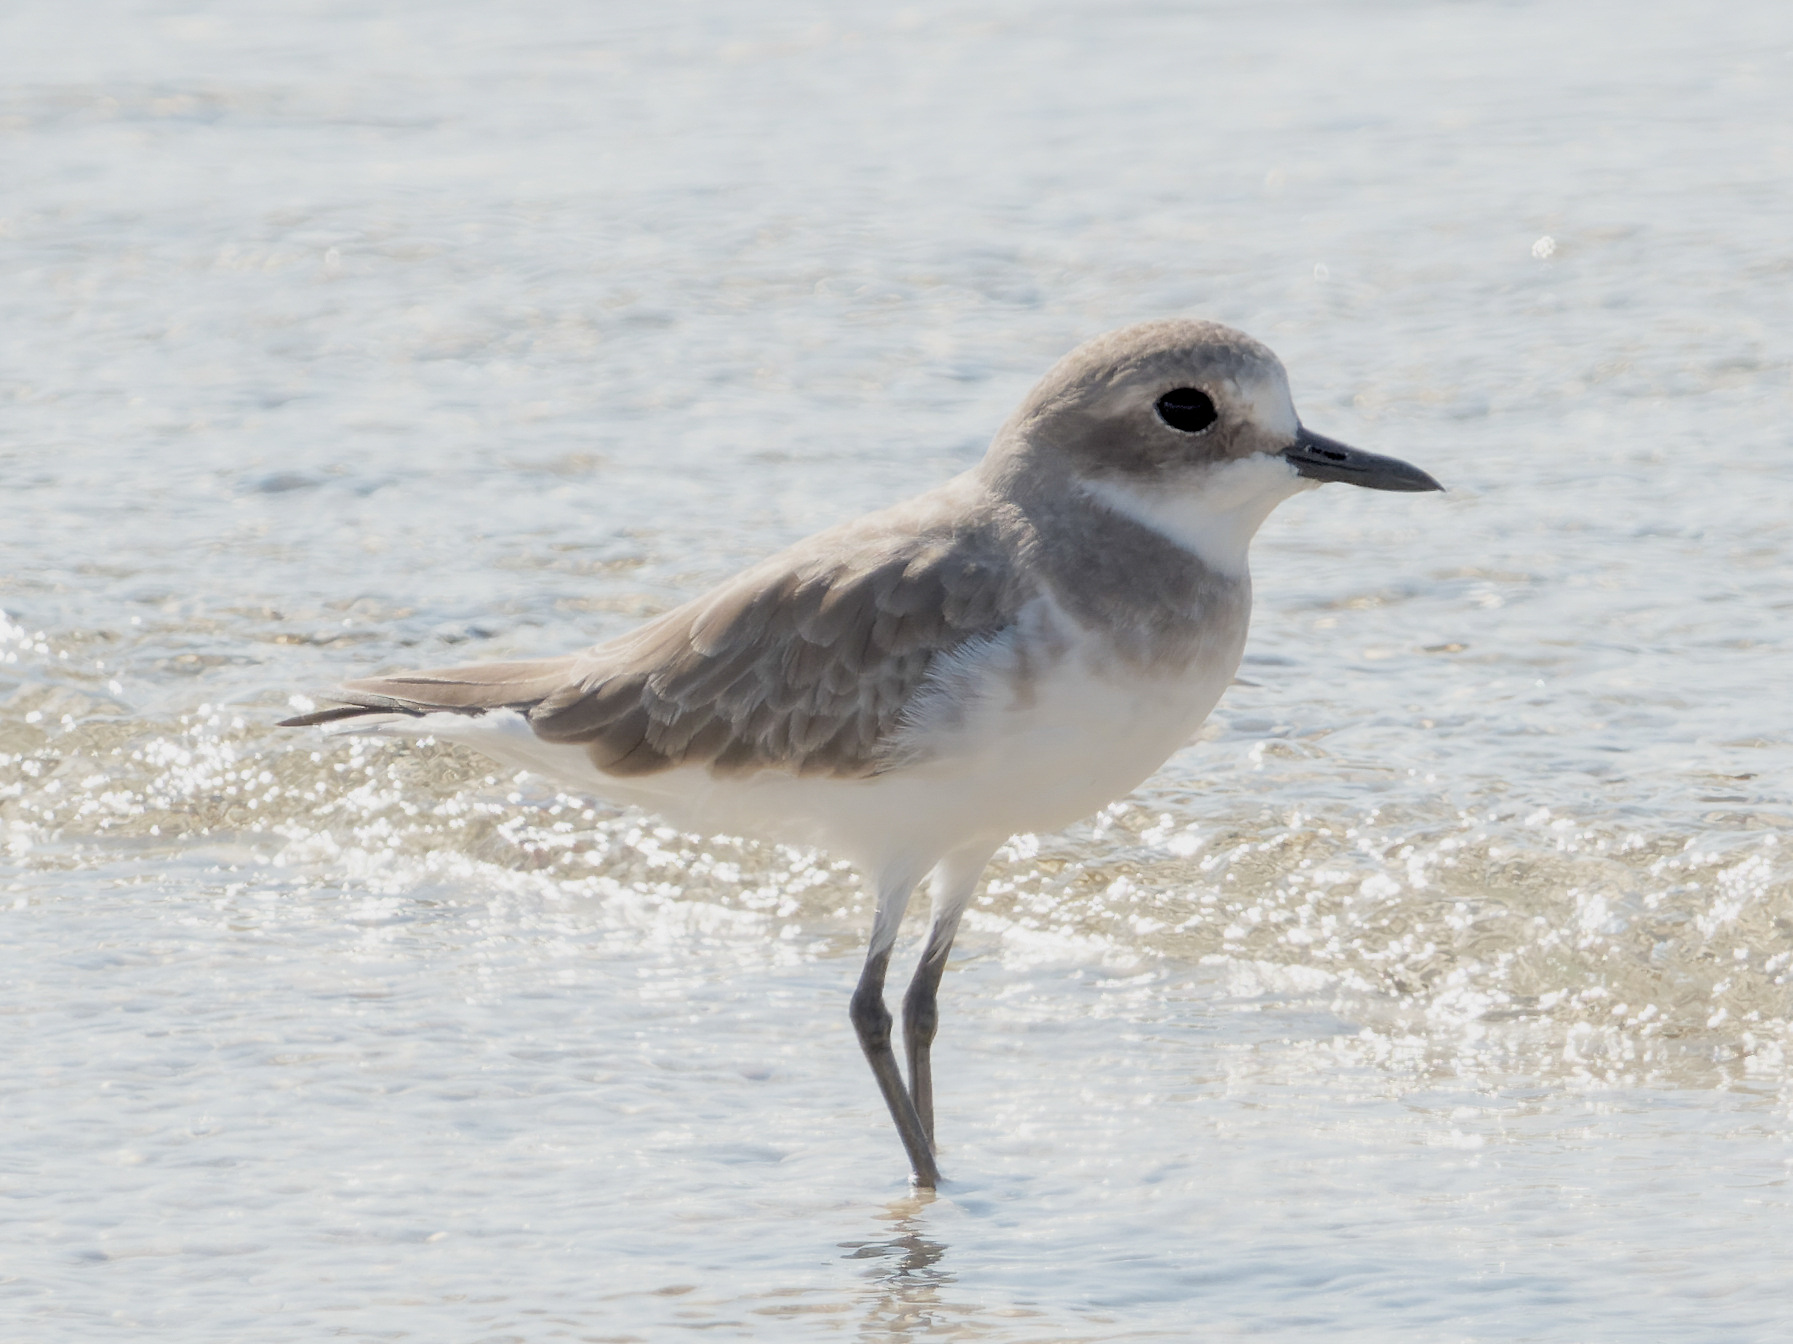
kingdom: Animalia
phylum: Chordata
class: Aves
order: Charadriiformes
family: Charadriidae
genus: Charadrius
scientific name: Charadrius leschenaultii
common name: Greater sand plover
